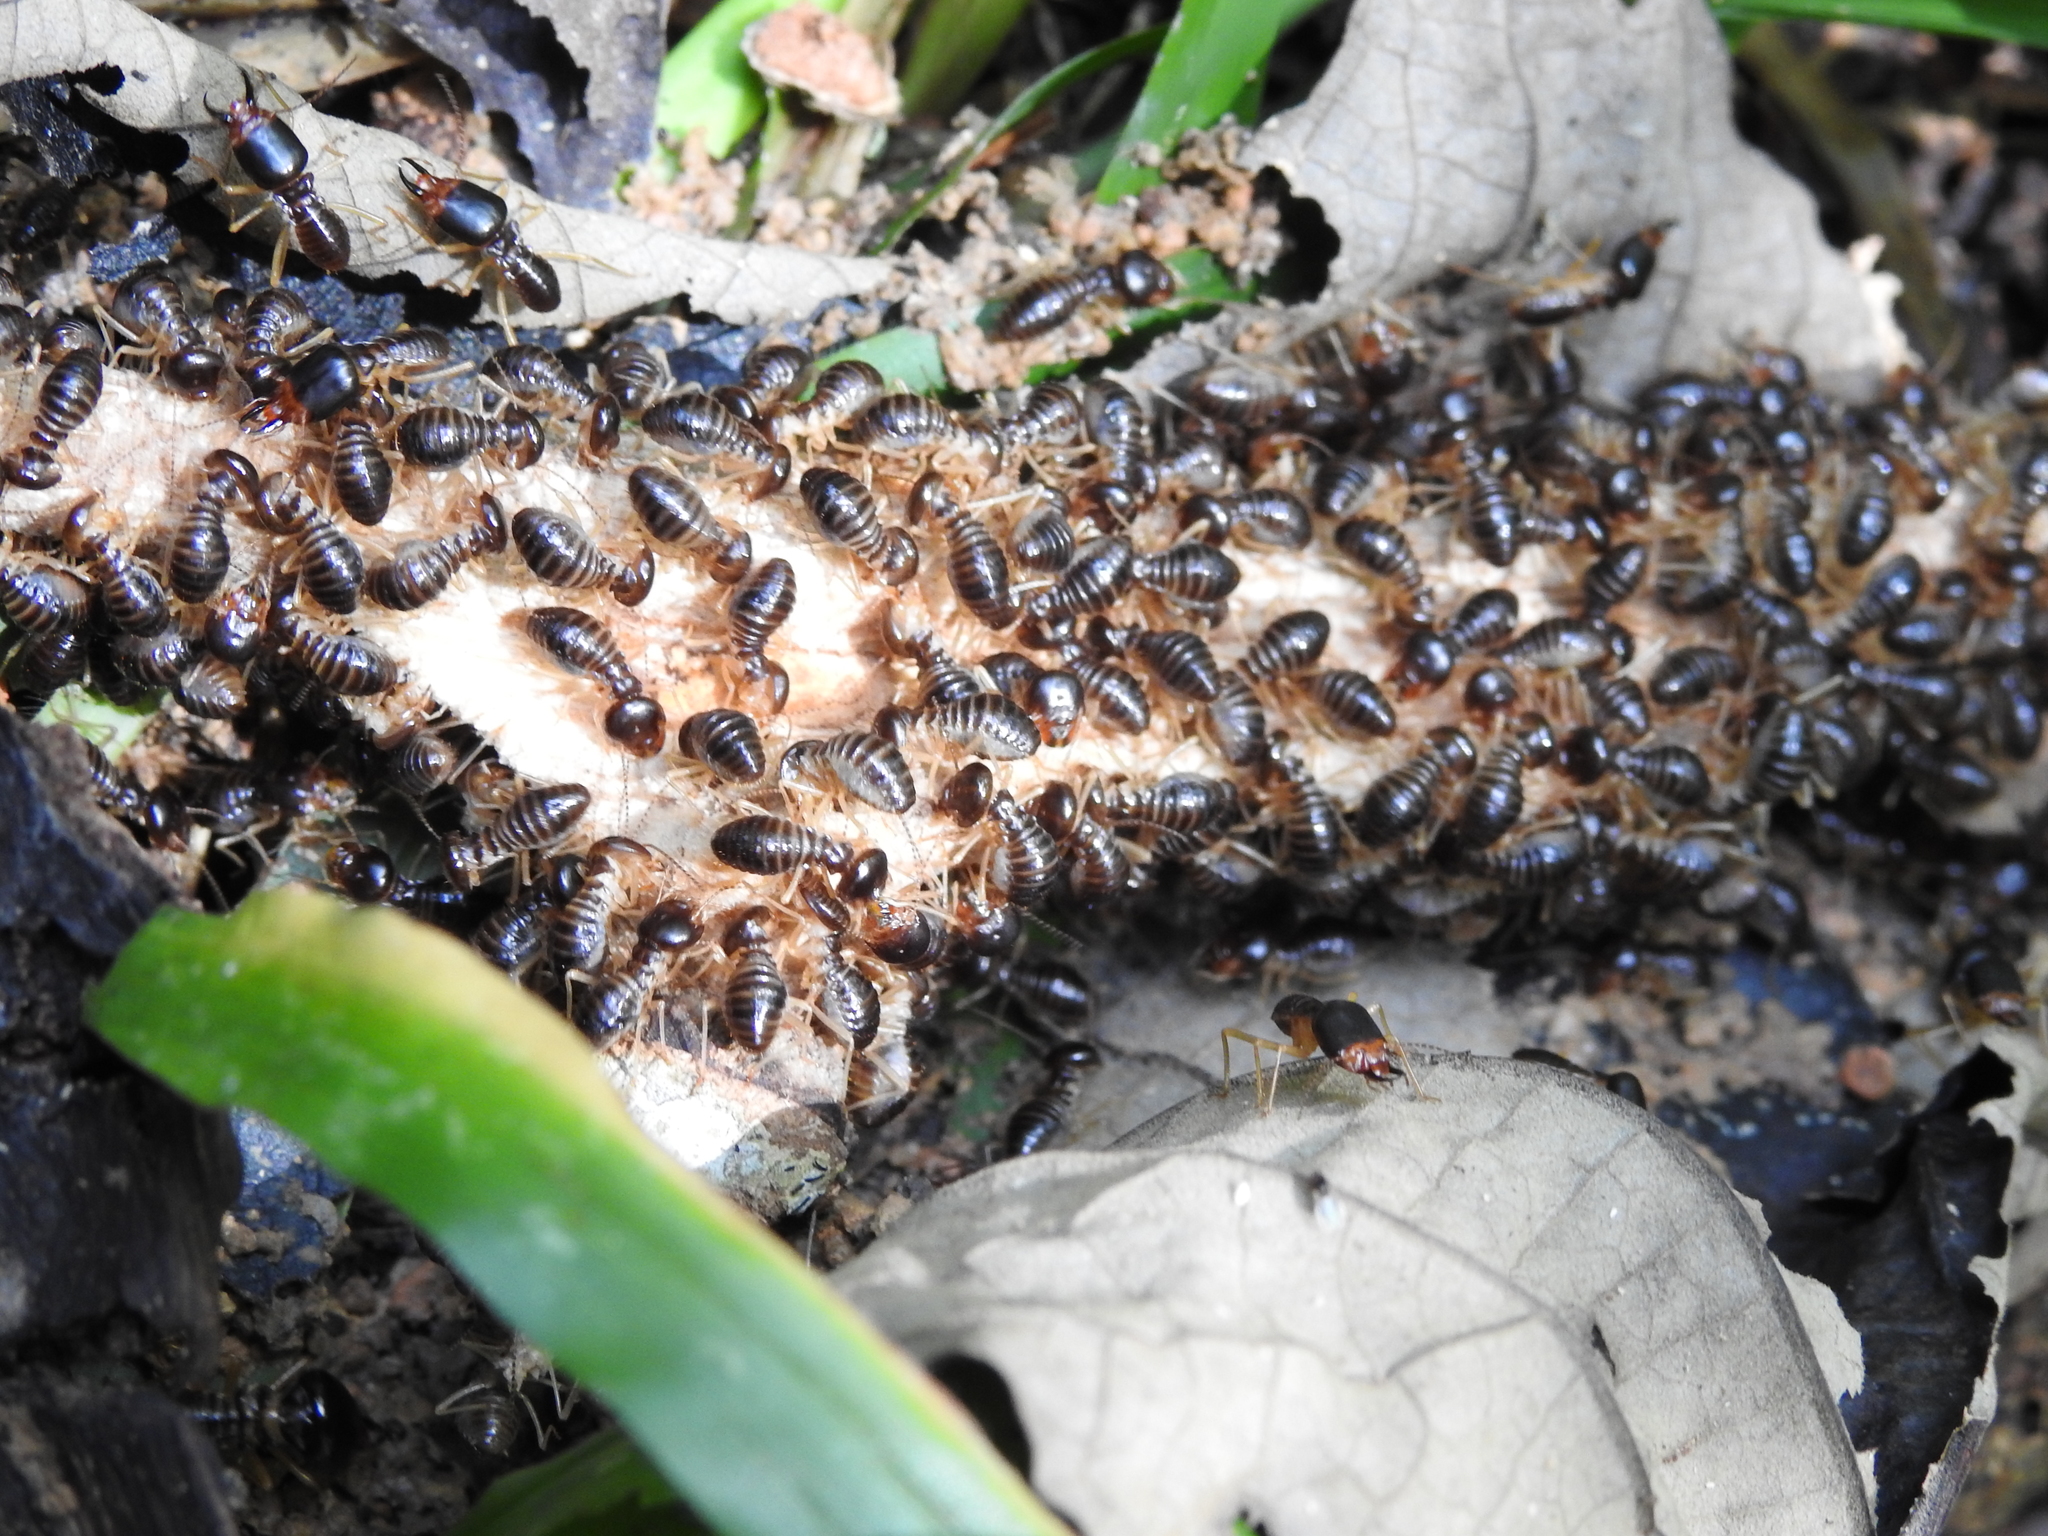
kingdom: Animalia
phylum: Arthropoda
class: Insecta
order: Blattodea
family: Termitidae
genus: Macrotermes
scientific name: Macrotermes carbonarius
